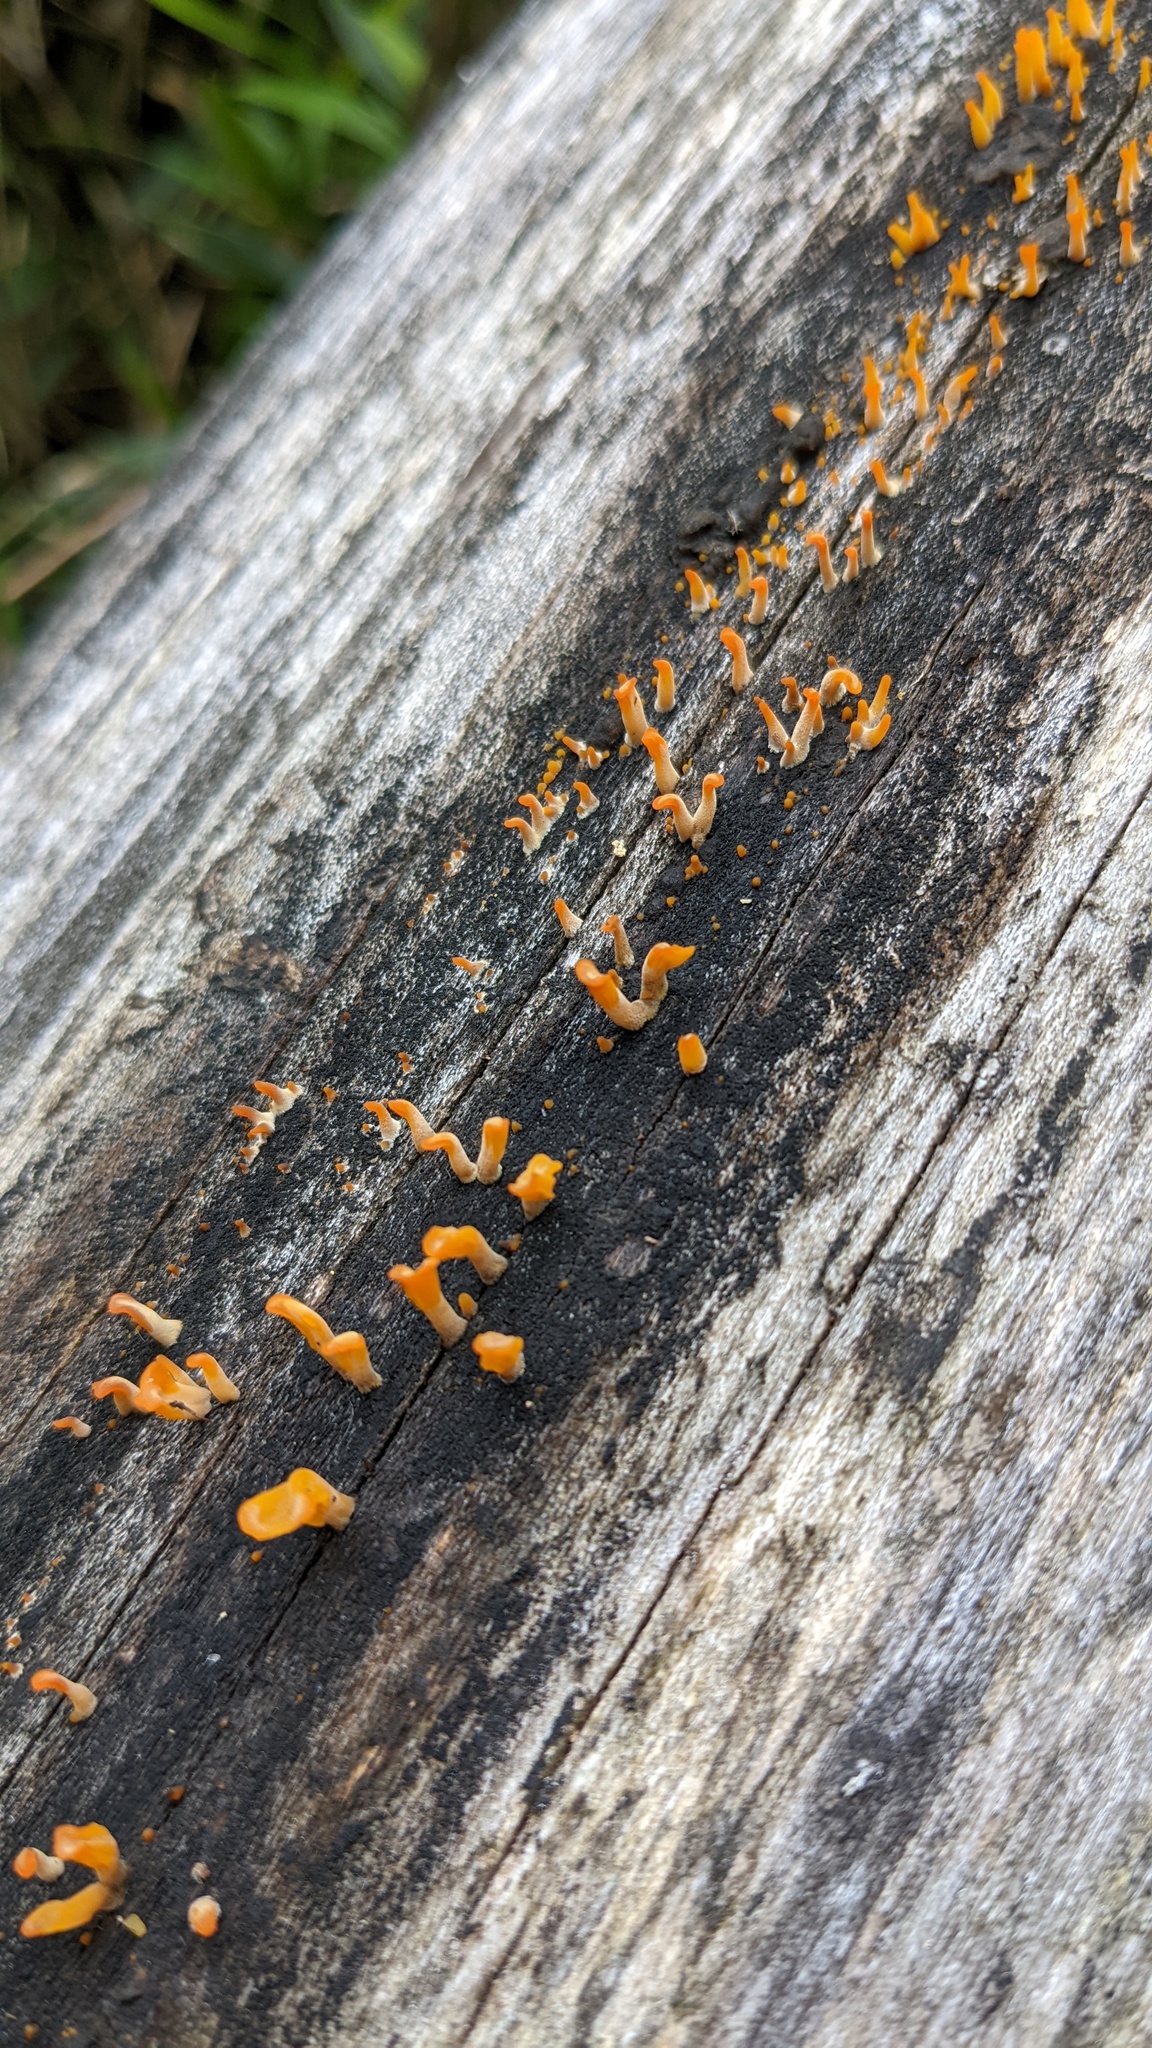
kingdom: Fungi
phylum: Basidiomycota
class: Dacrymycetes
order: Dacrymycetales
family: Dacrymycetaceae
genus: Dacrymyces
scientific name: Dacrymyces spathularius
